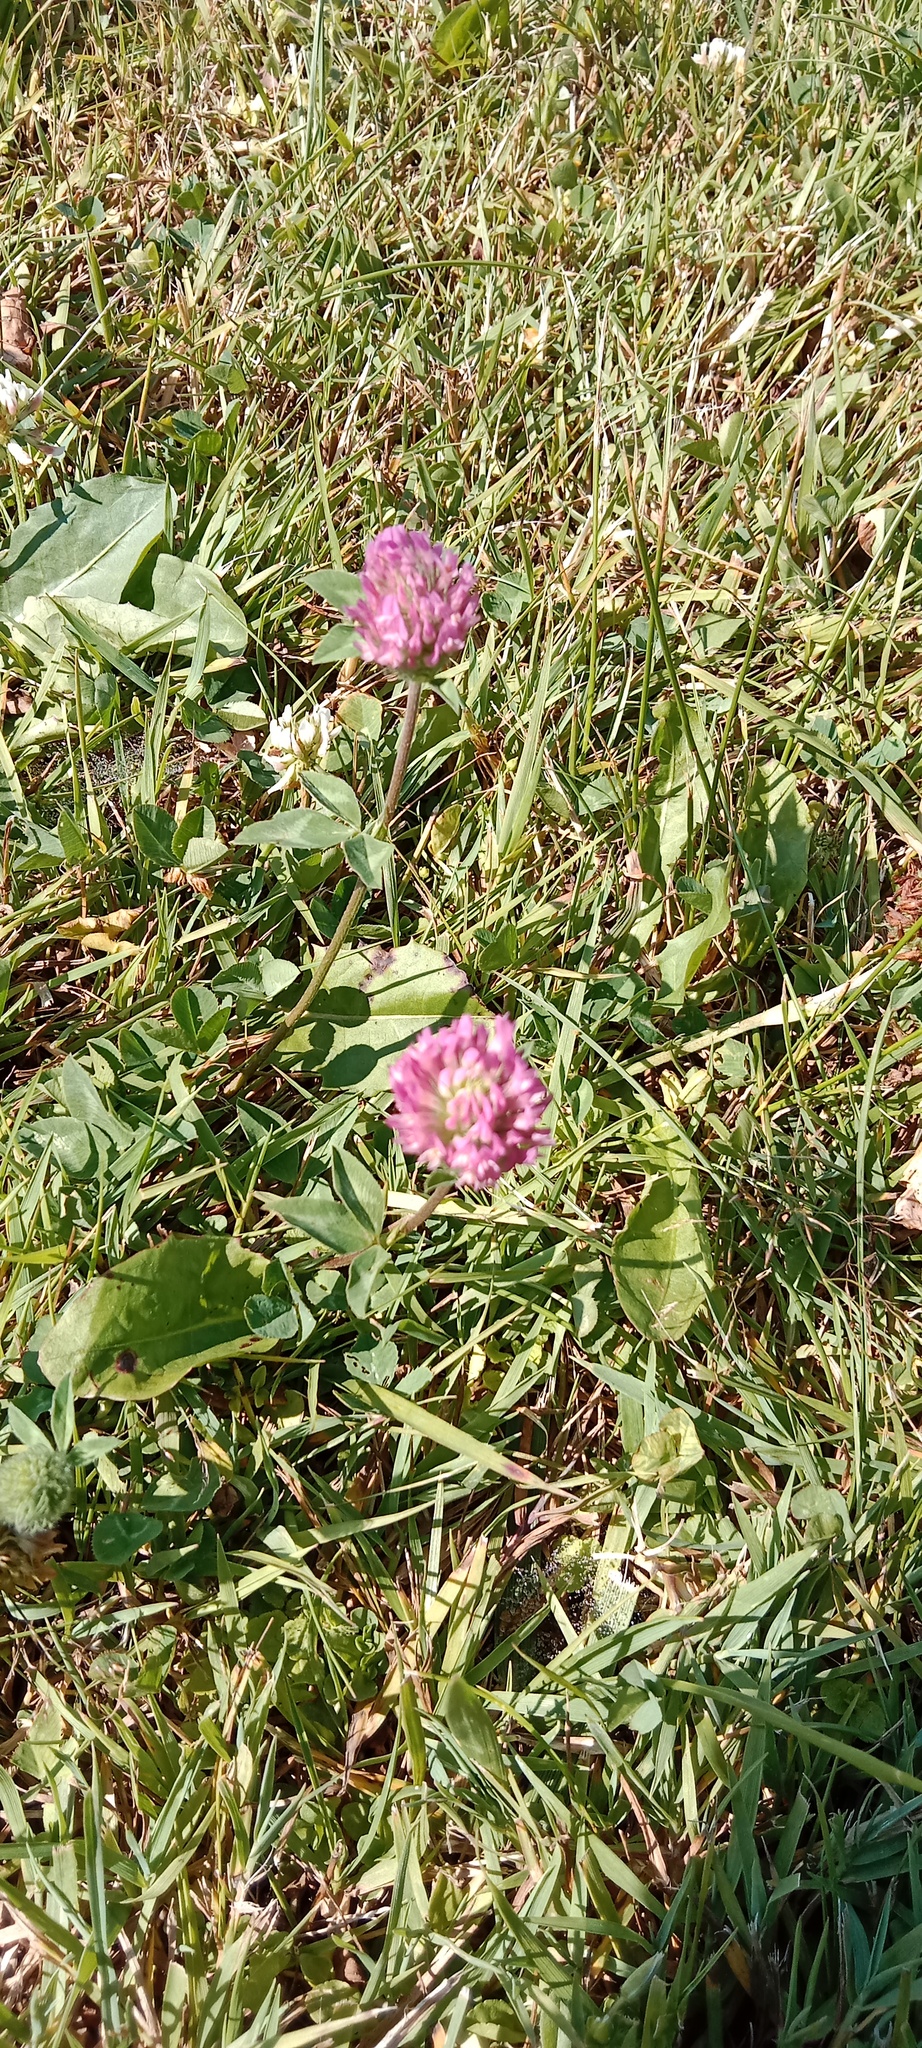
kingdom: Plantae
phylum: Tracheophyta
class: Magnoliopsida
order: Fabales
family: Fabaceae
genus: Trifolium
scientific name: Trifolium pratense
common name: Red clover
